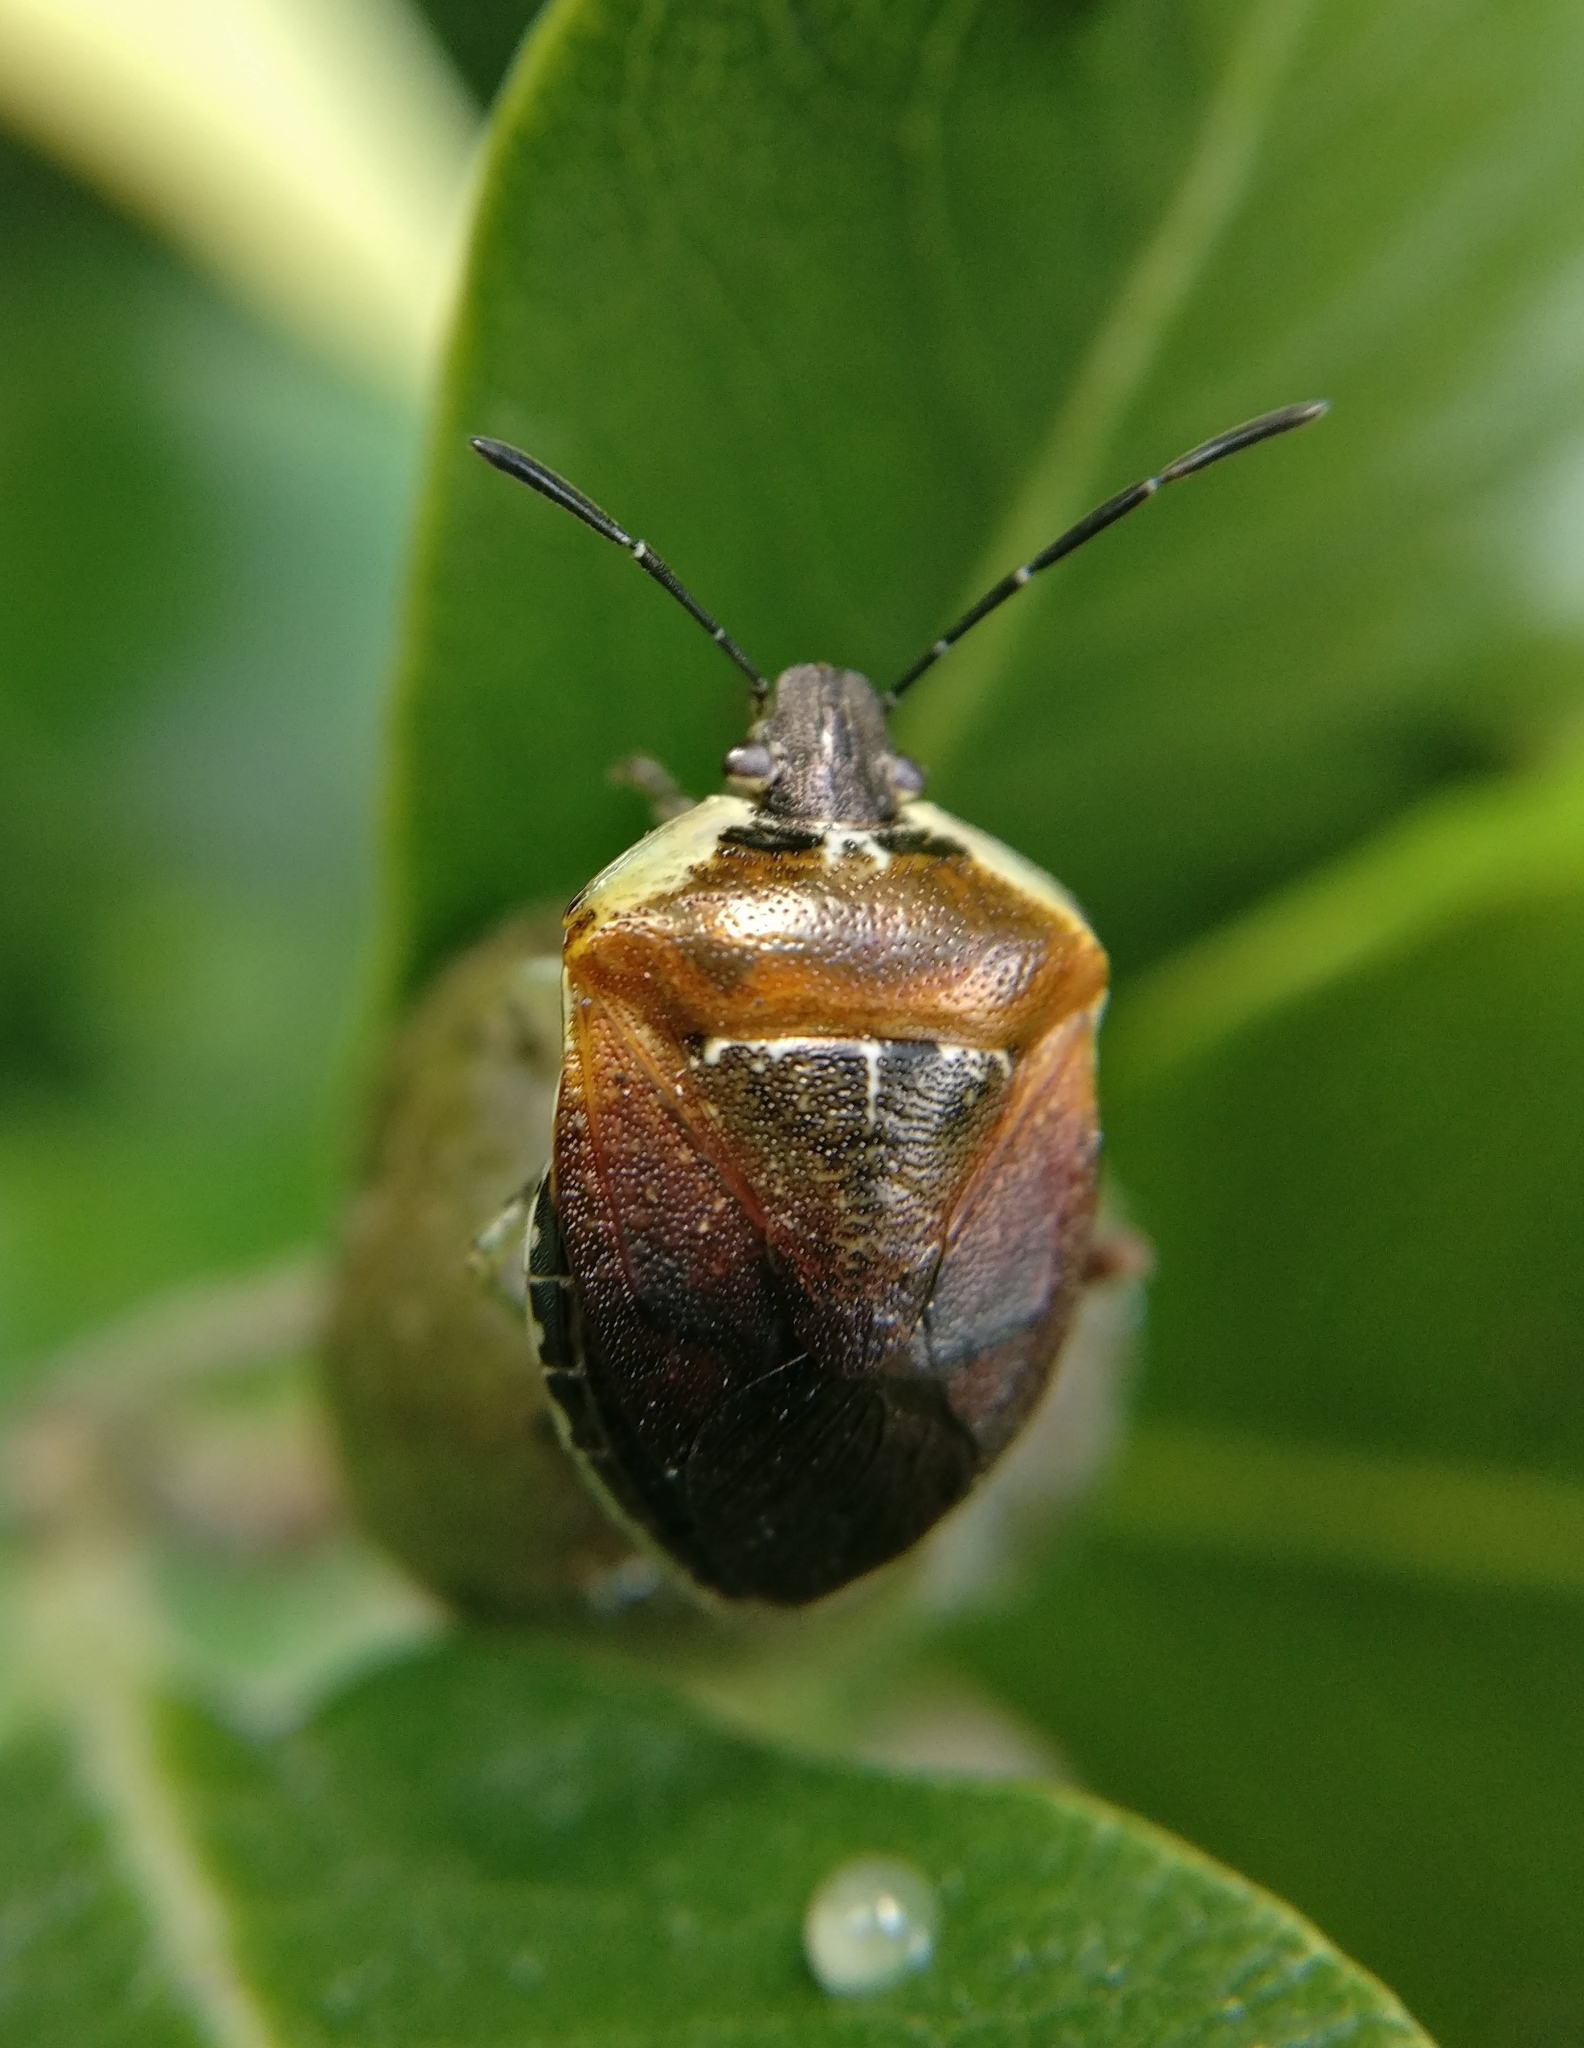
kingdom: Animalia
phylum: Arthropoda
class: Insecta
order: Hemiptera
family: Pentatomidae
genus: Monteithiella
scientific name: Monteithiella
